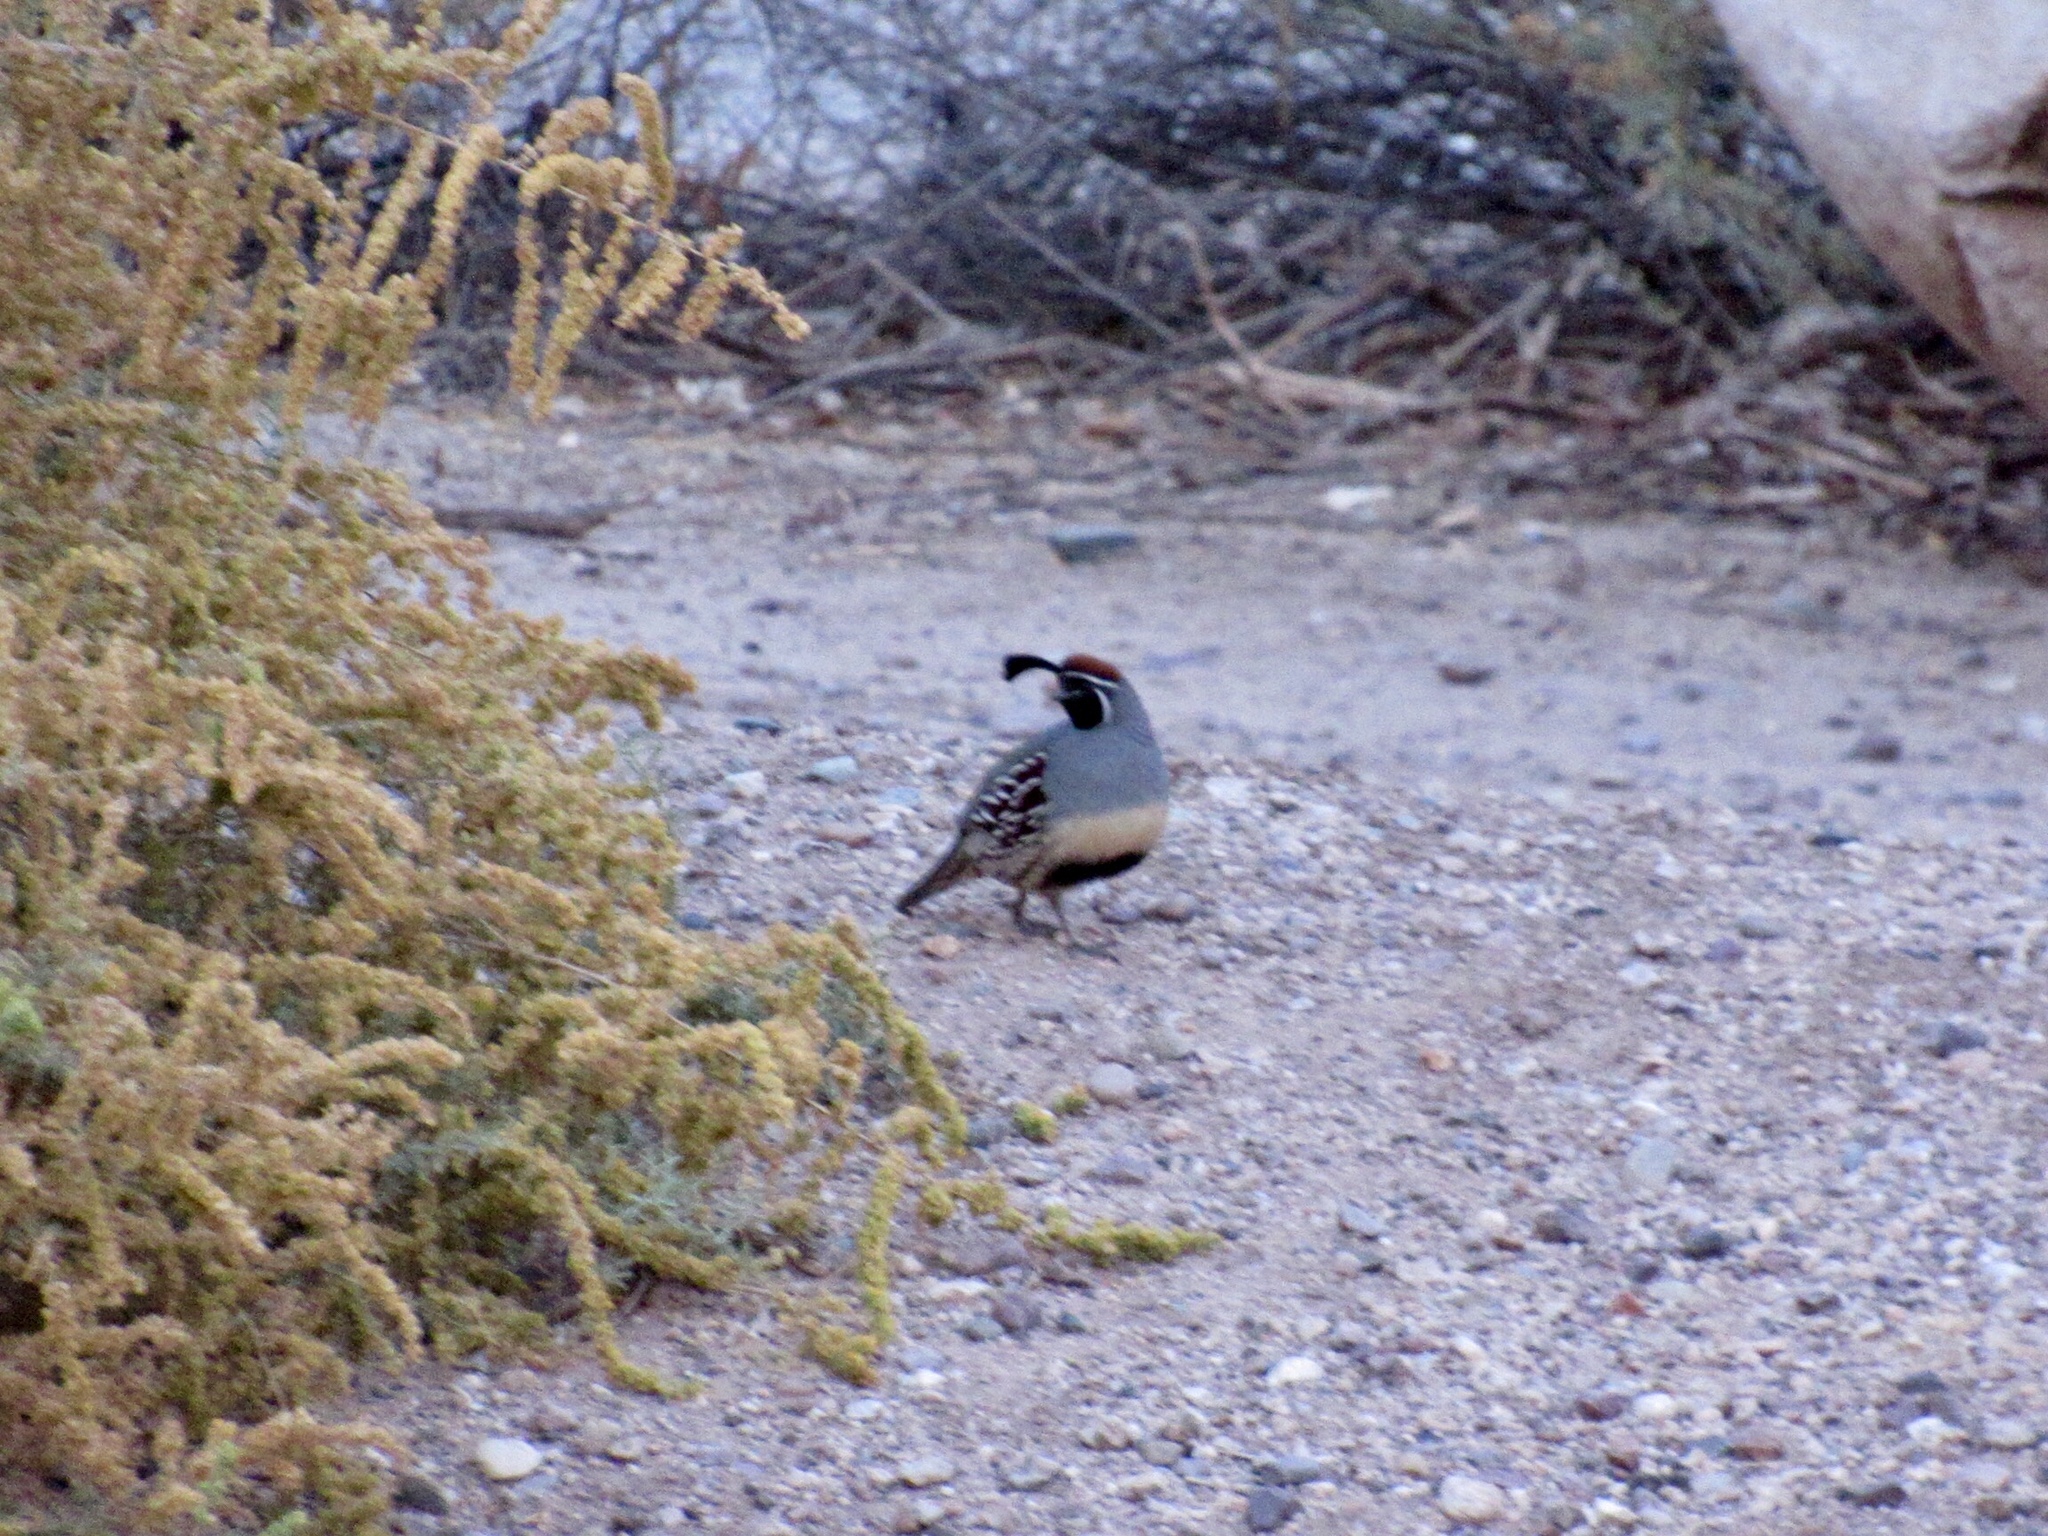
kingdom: Animalia
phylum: Chordata
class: Aves
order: Galliformes
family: Odontophoridae
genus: Callipepla
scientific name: Callipepla gambelii
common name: Gambel's quail
